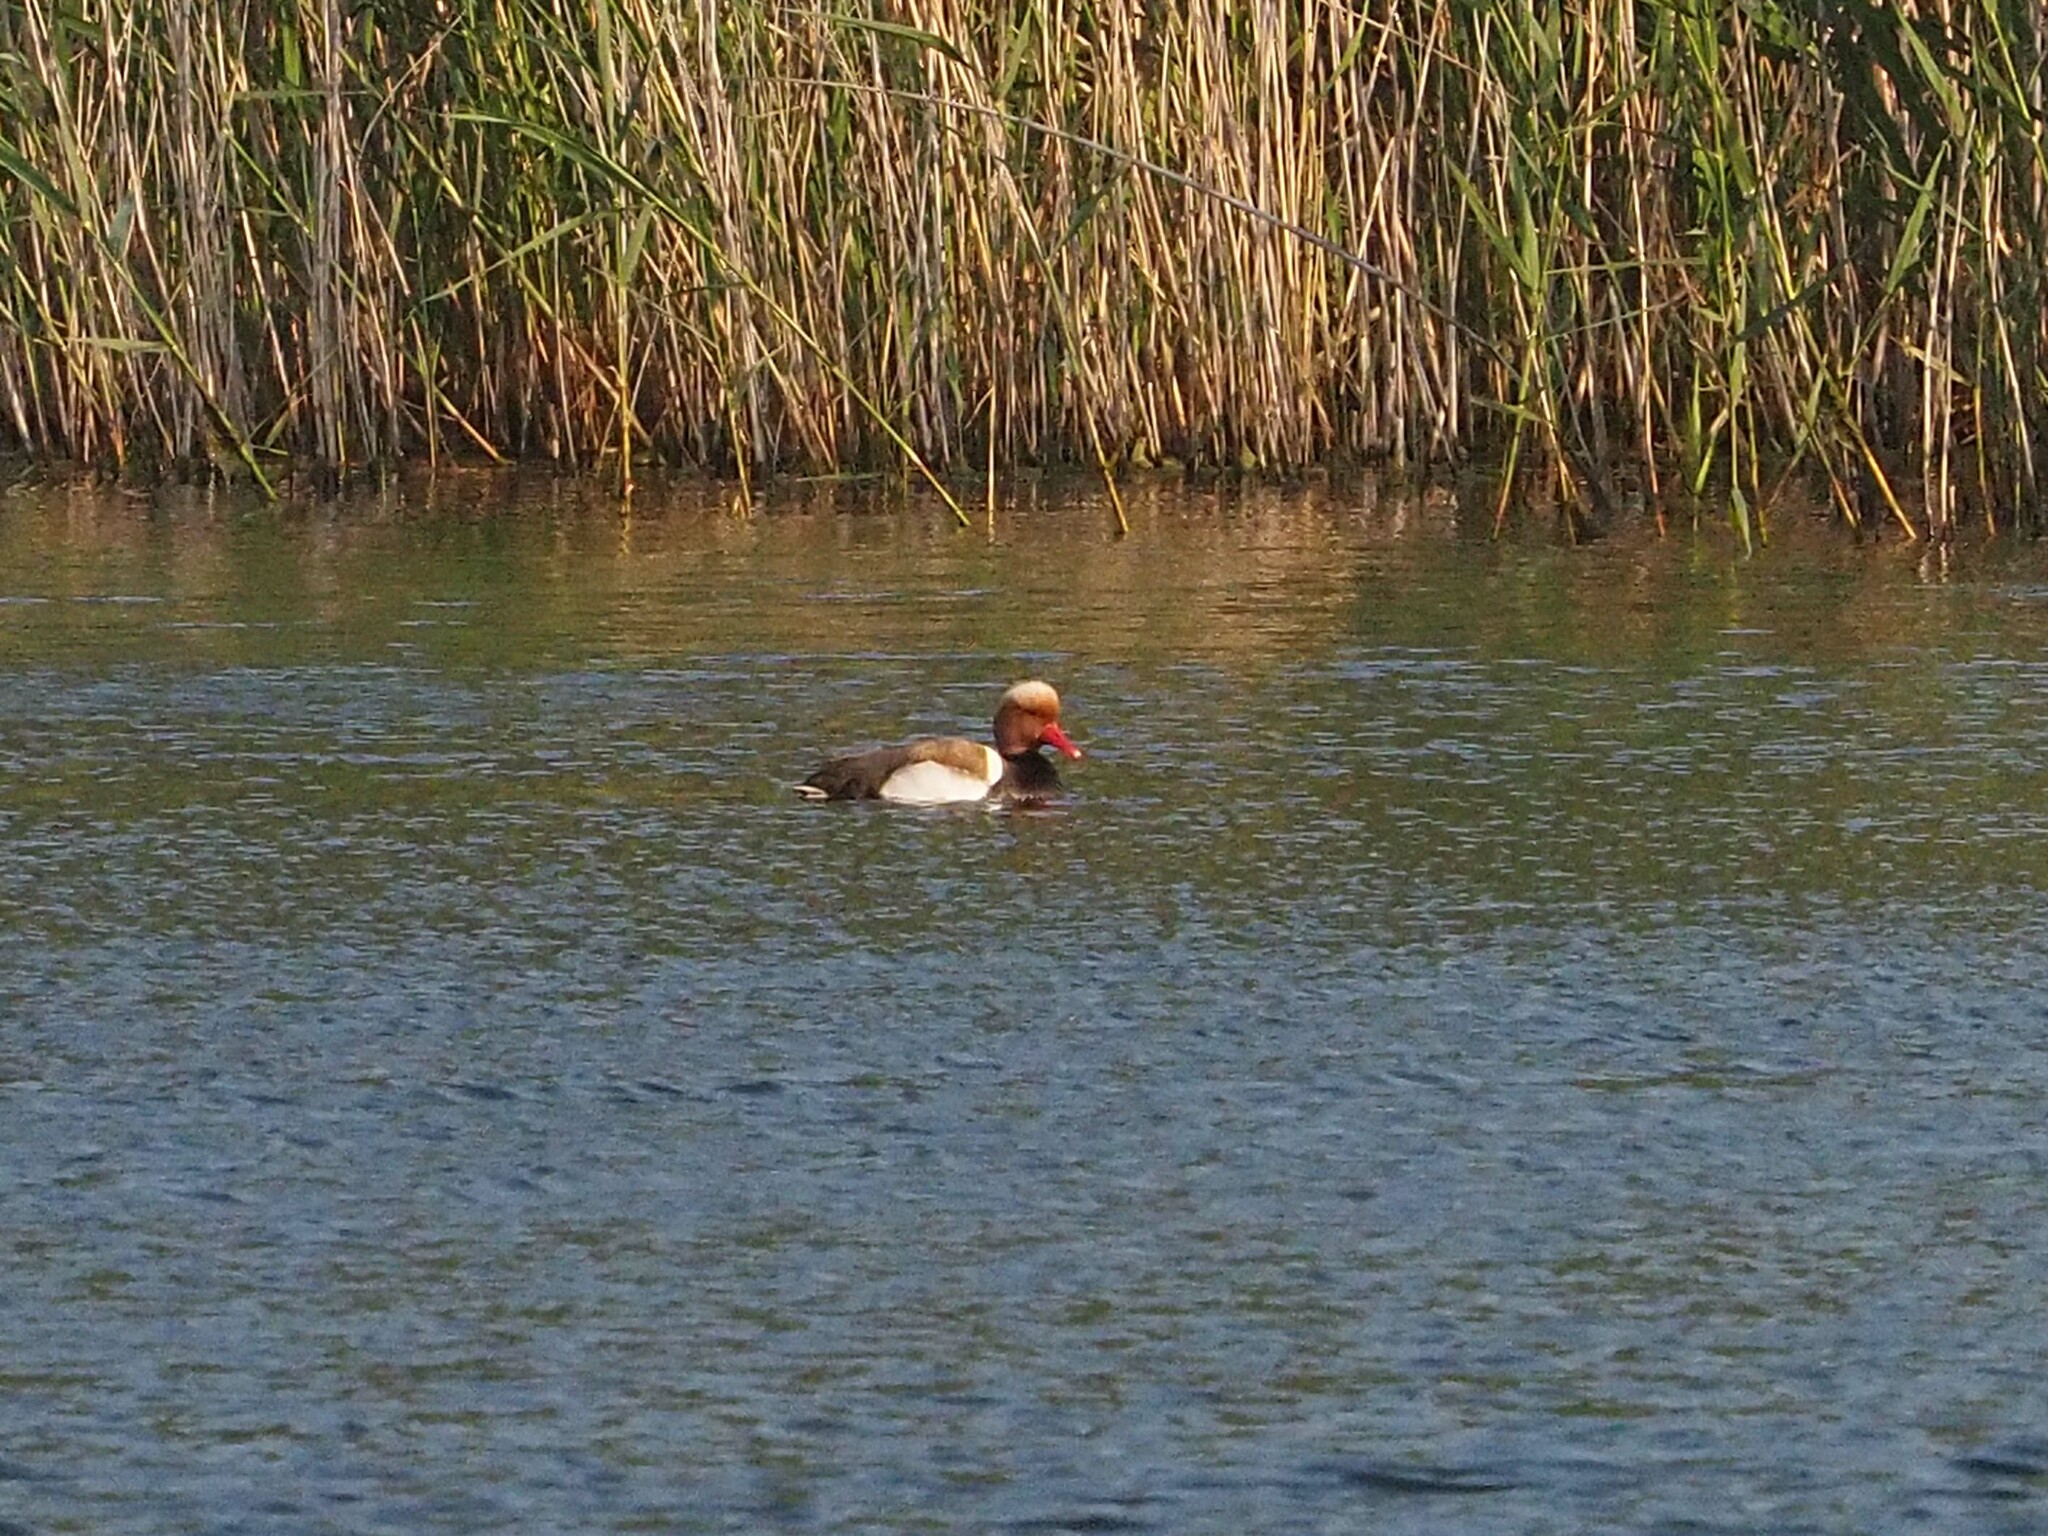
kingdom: Animalia
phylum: Chordata
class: Aves
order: Anseriformes
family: Anatidae
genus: Netta
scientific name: Netta rufina
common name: Red-crested pochard
